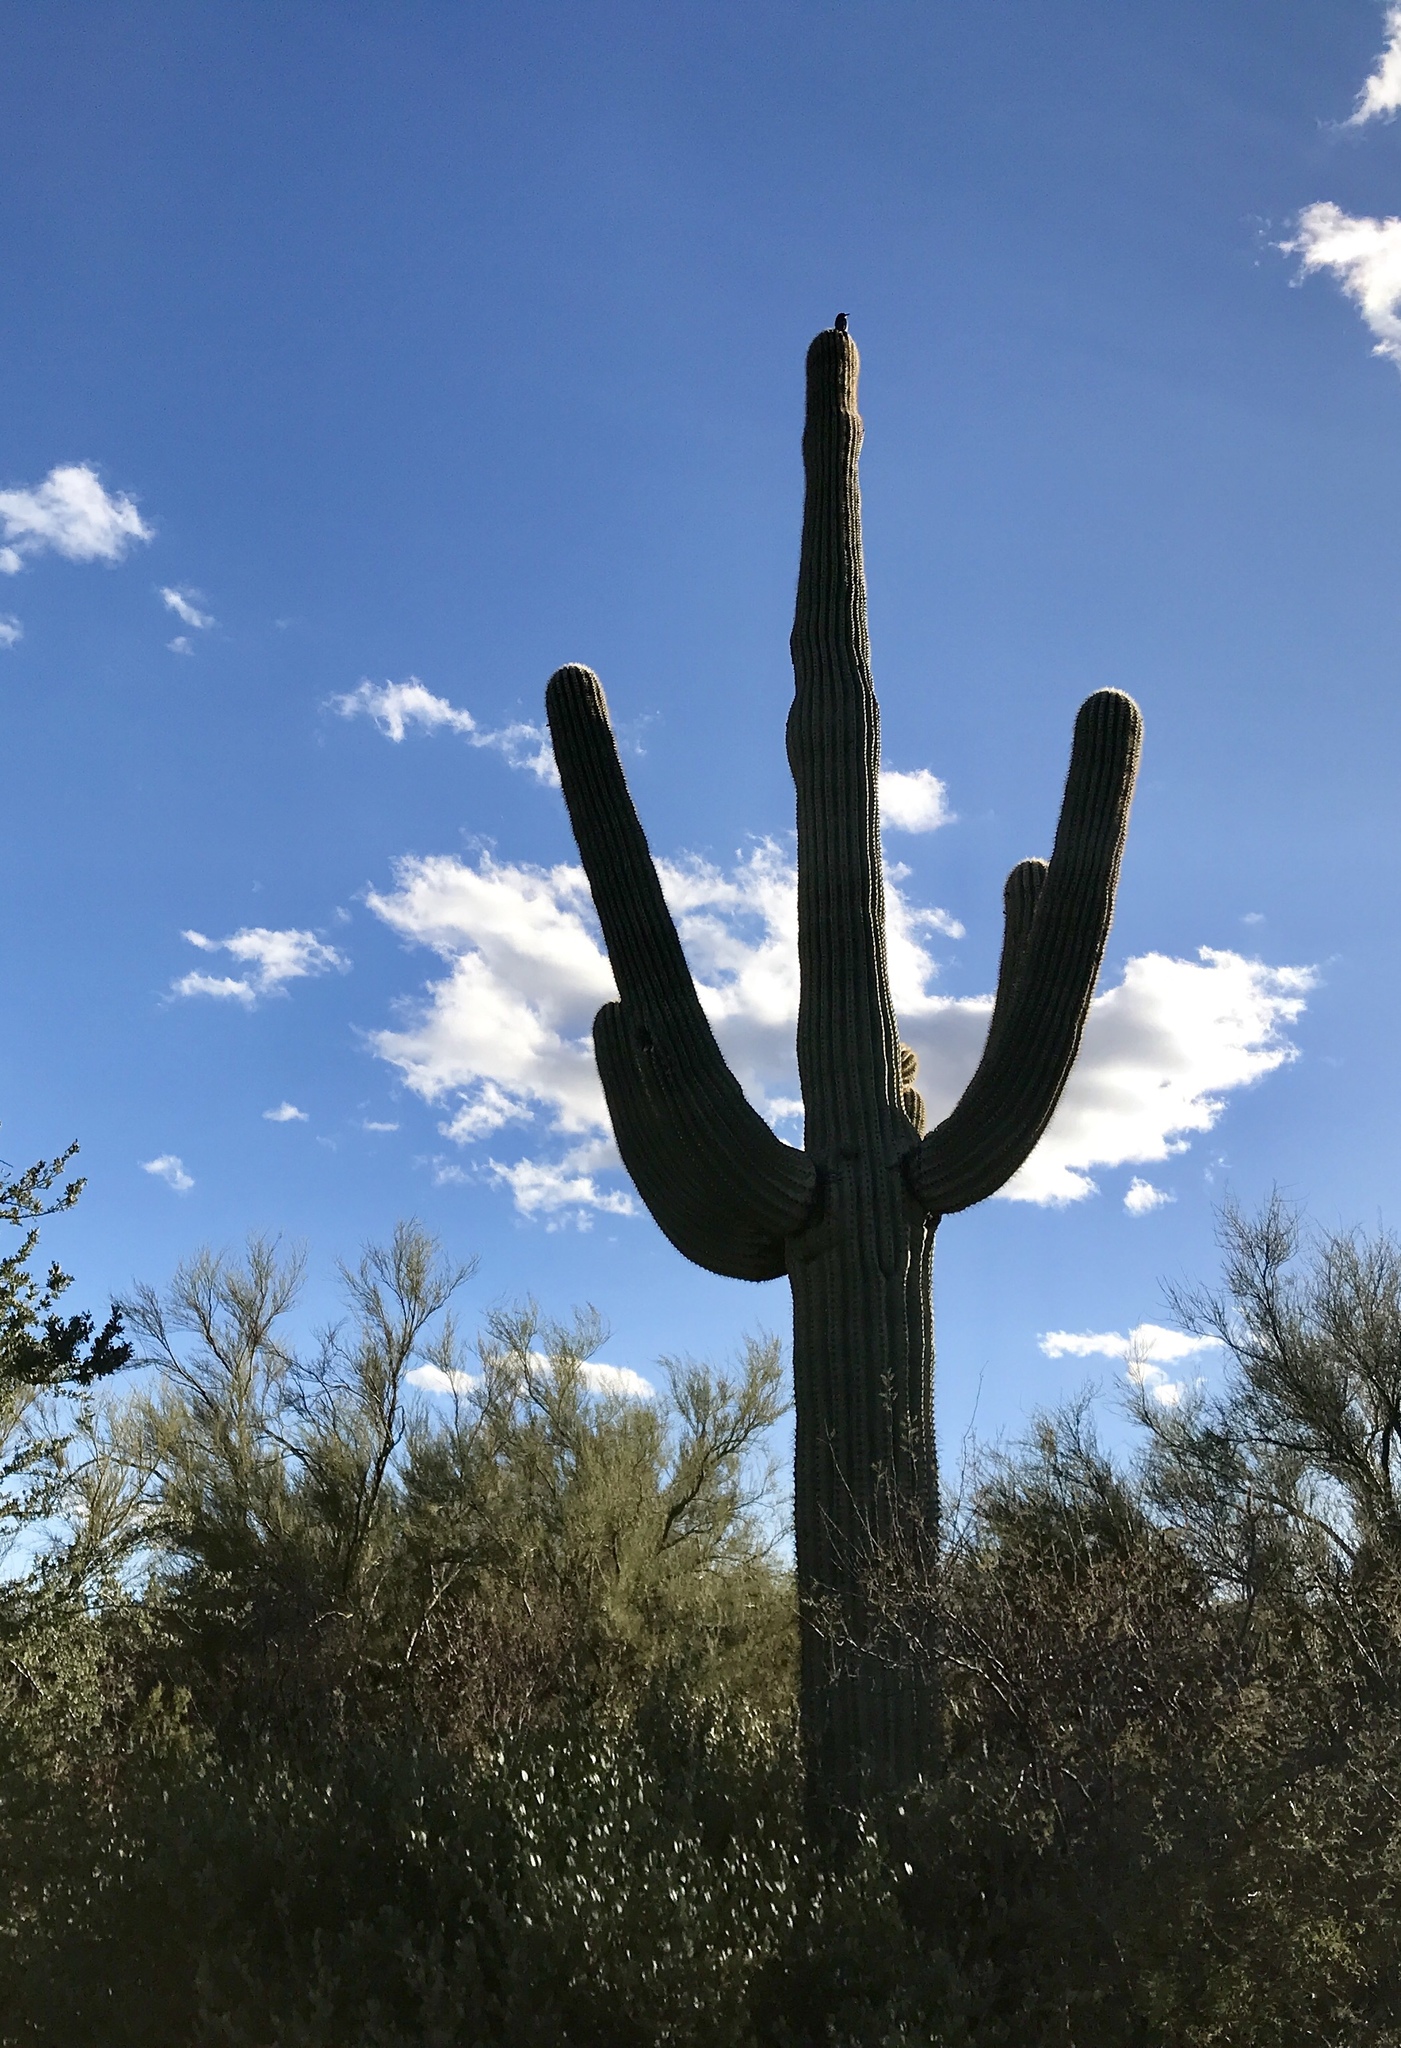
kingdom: Plantae
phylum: Tracheophyta
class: Magnoliopsida
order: Caryophyllales
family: Cactaceae
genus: Carnegiea
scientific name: Carnegiea gigantea
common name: Saguaro
